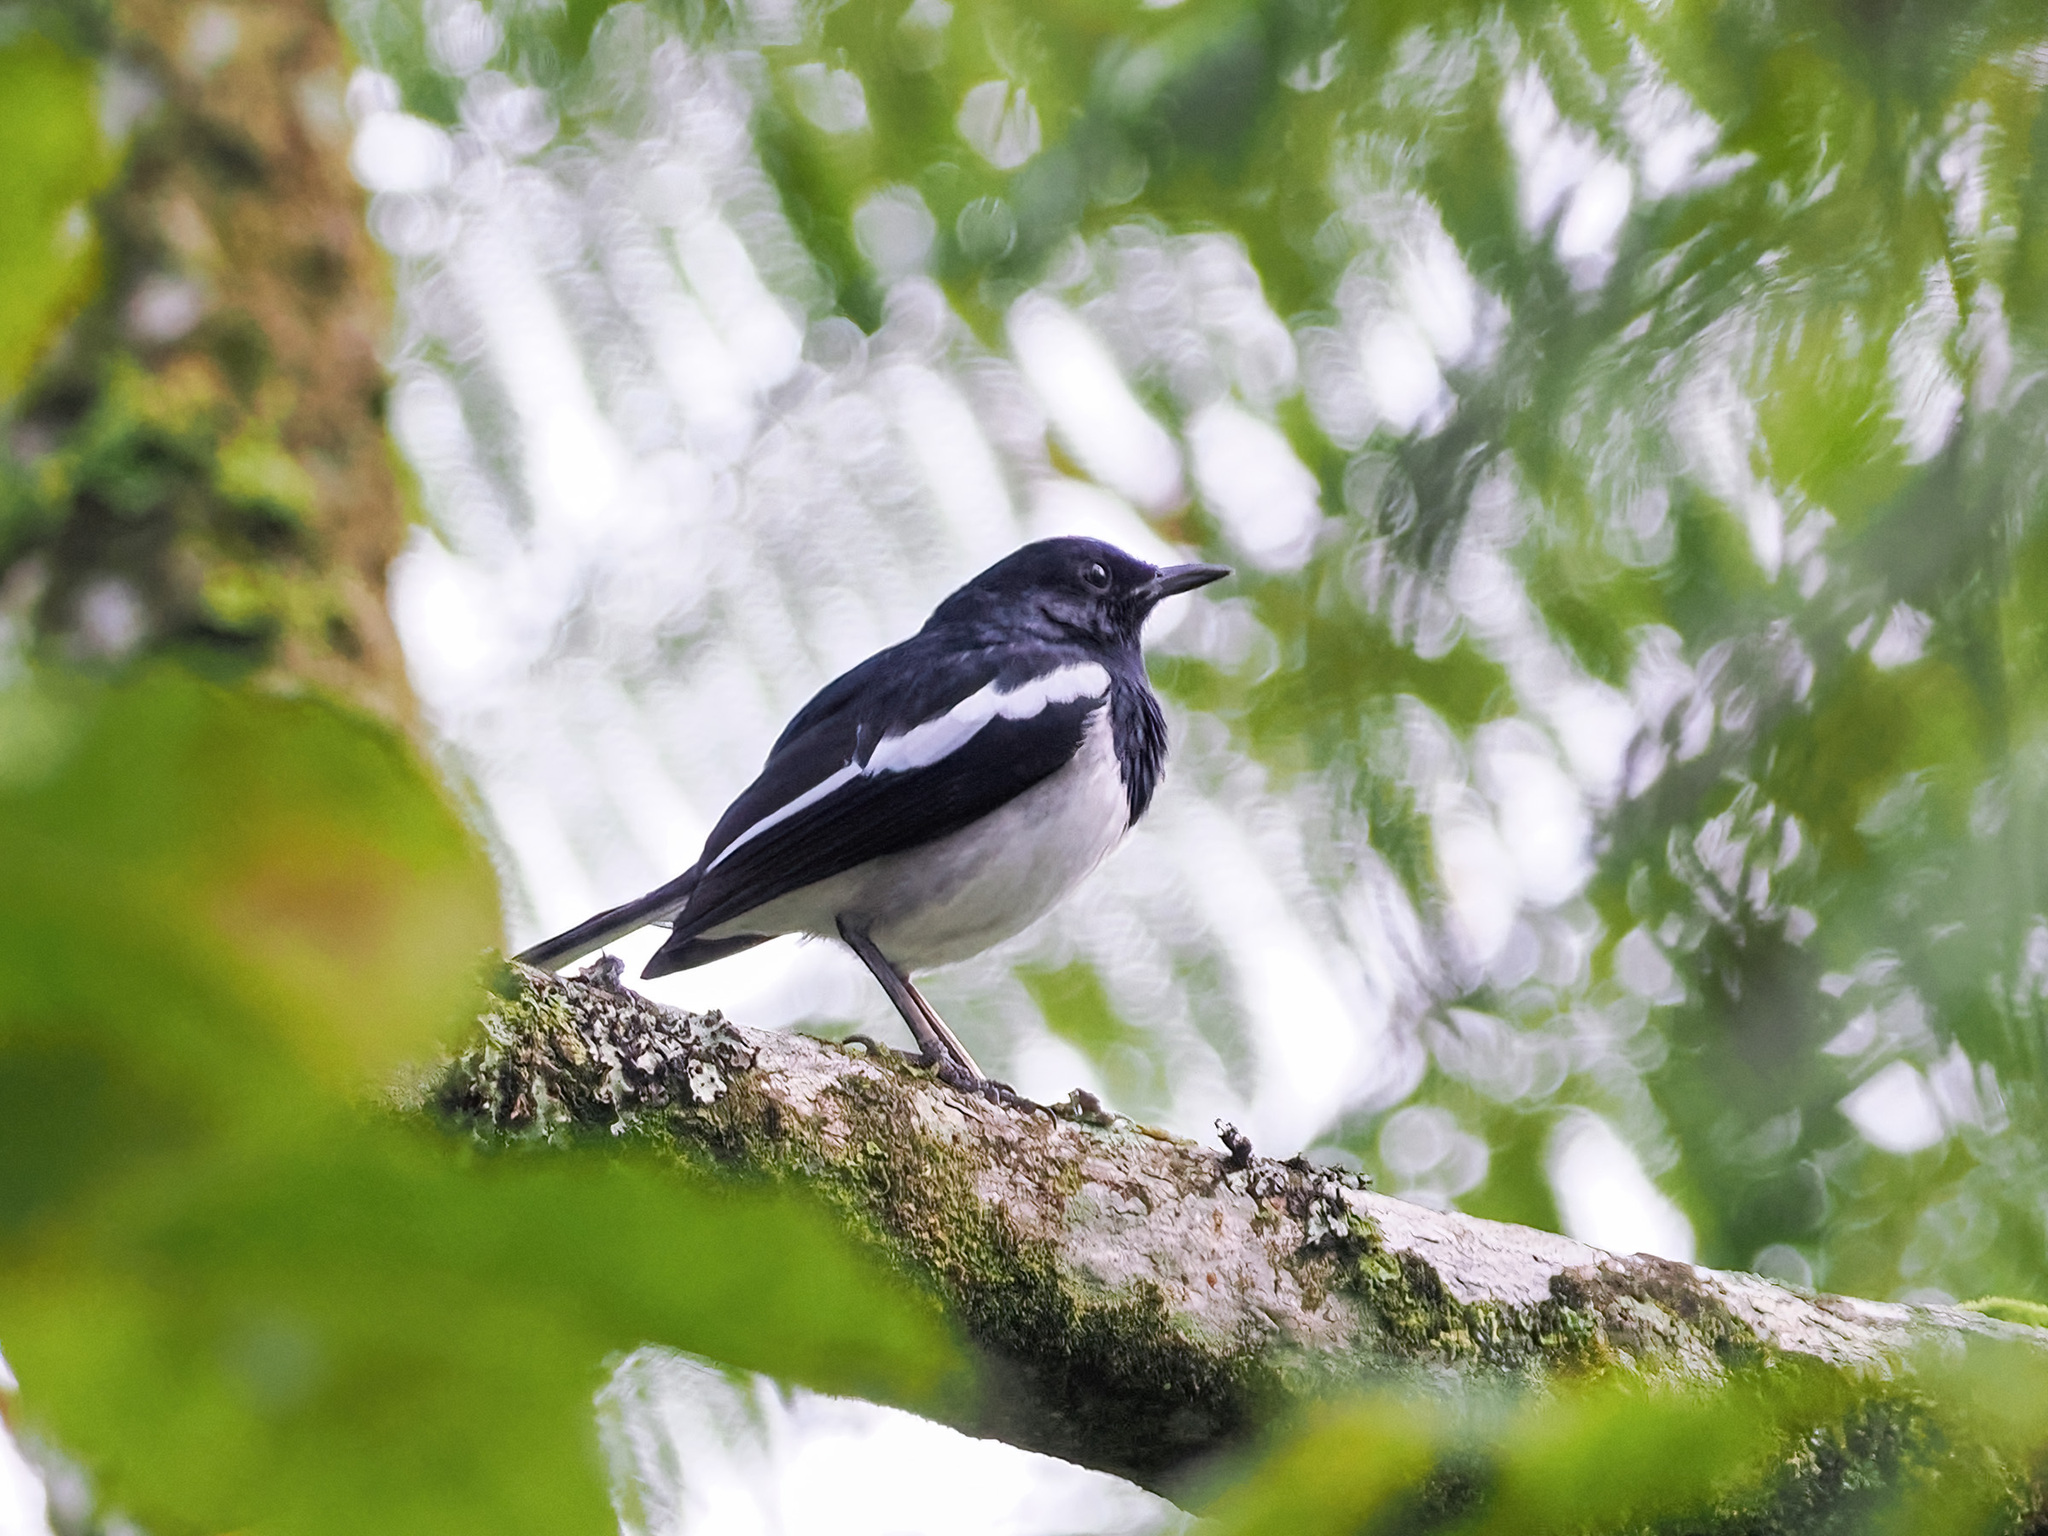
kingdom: Animalia
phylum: Chordata
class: Aves
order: Passeriformes
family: Muscicapidae
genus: Copsychus
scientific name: Copsychus saularis
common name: Oriental magpie-robin
